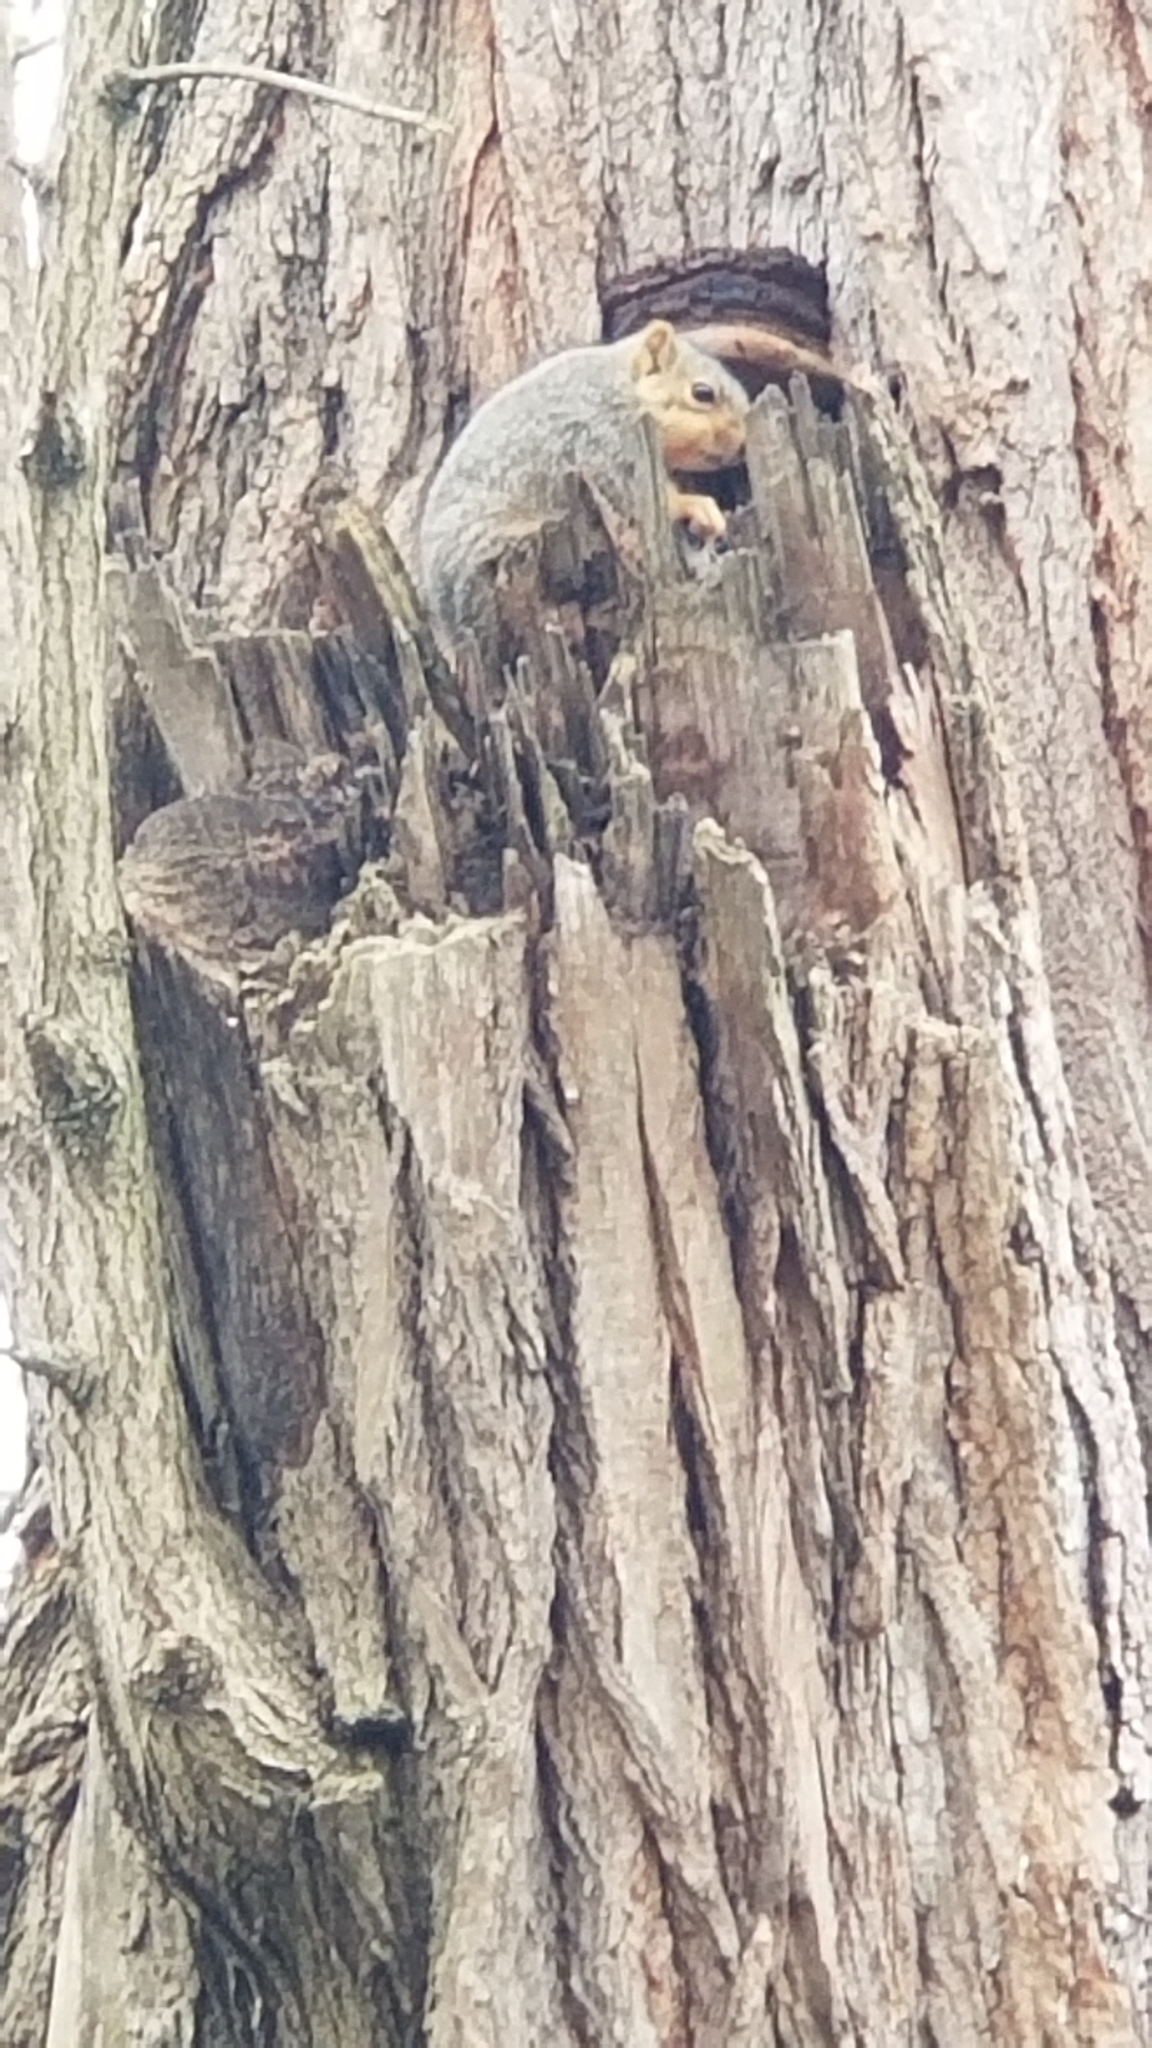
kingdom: Animalia
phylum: Chordata
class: Mammalia
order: Rodentia
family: Sciuridae
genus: Sciurus
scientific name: Sciurus niger
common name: Fox squirrel
